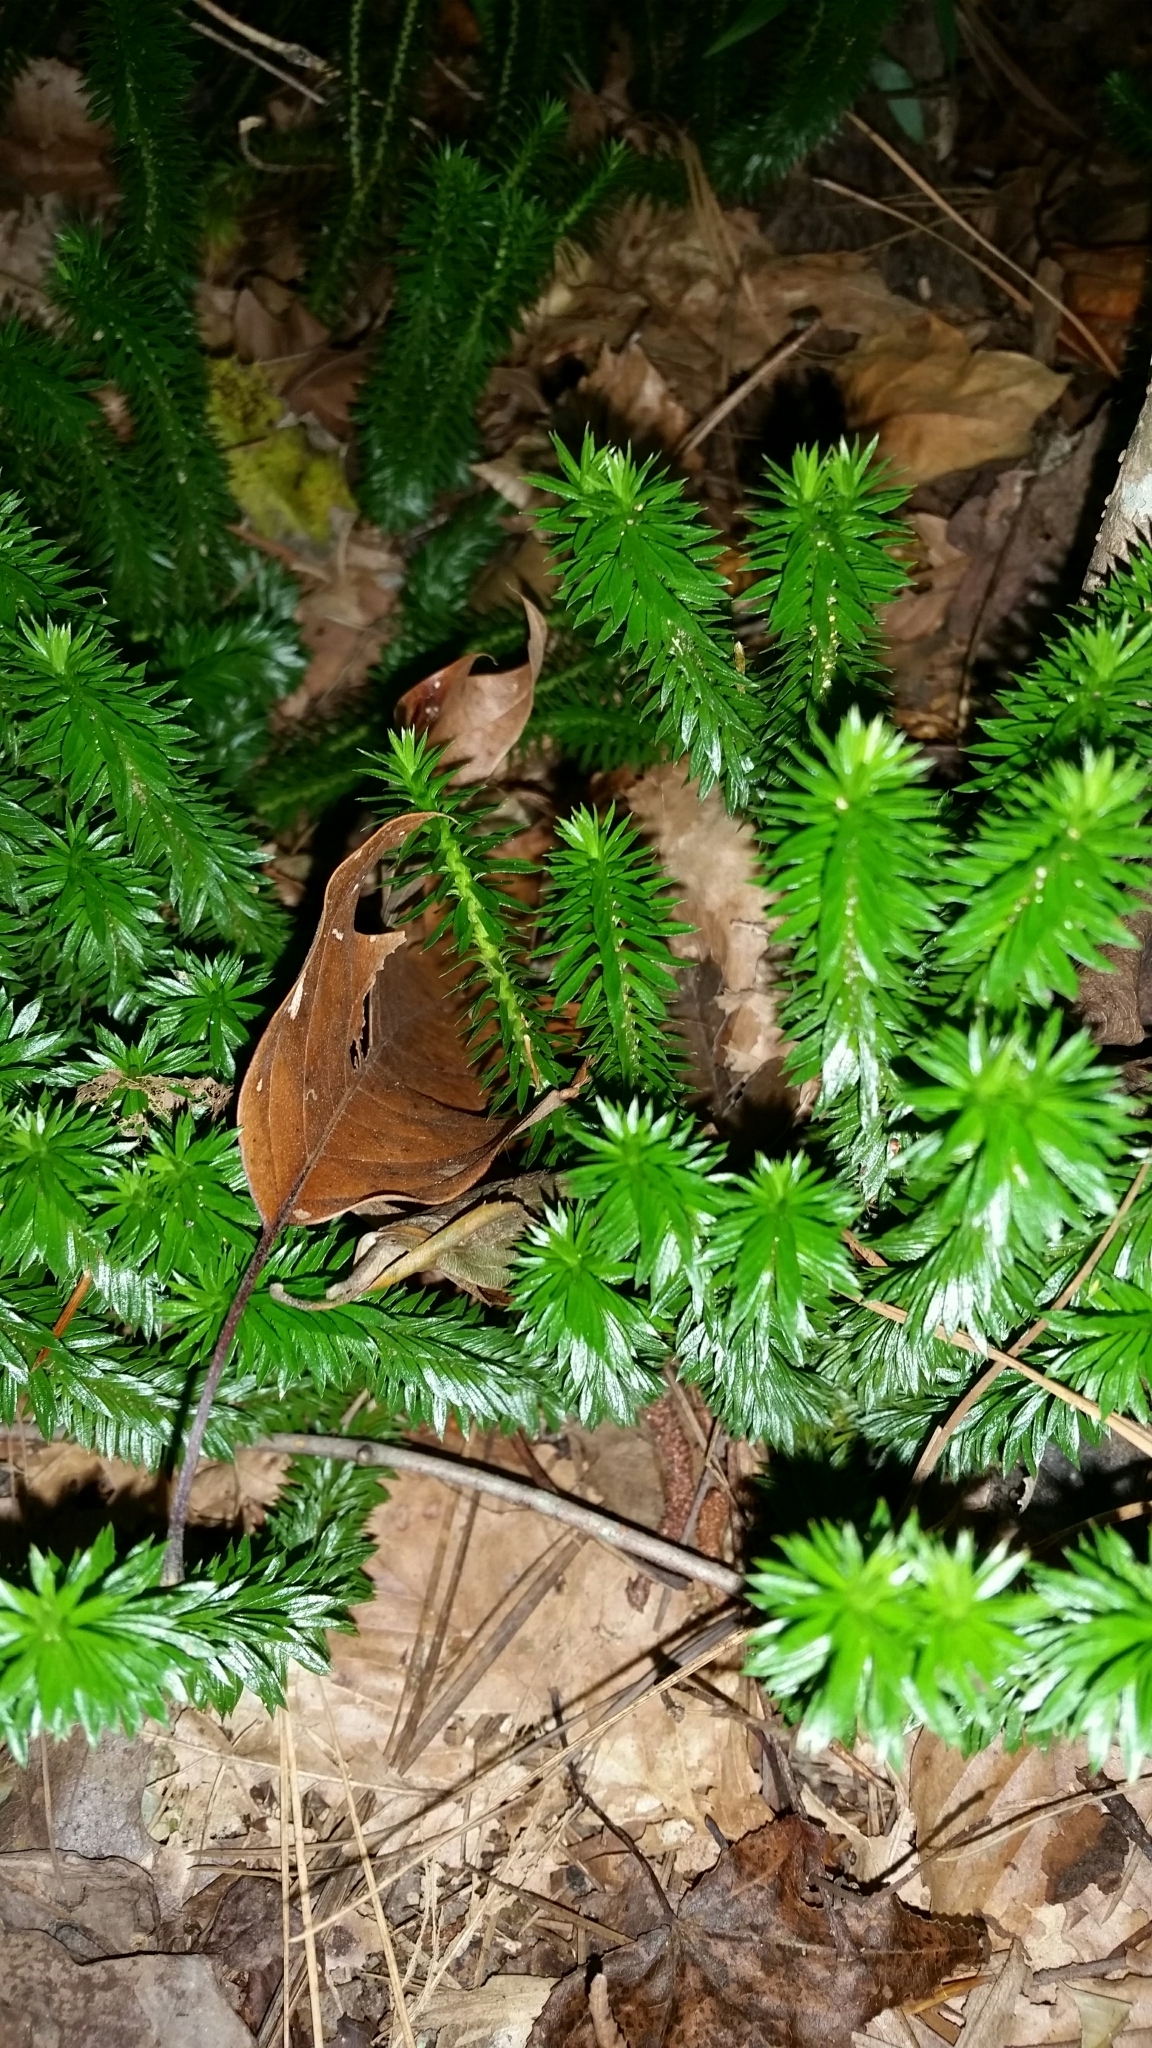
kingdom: Plantae
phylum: Tracheophyta
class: Lycopodiopsida
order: Lycopodiales
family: Lycopodiaceae
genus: Huperzia
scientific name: Huperzia lucidula
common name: Shining clubmoss
